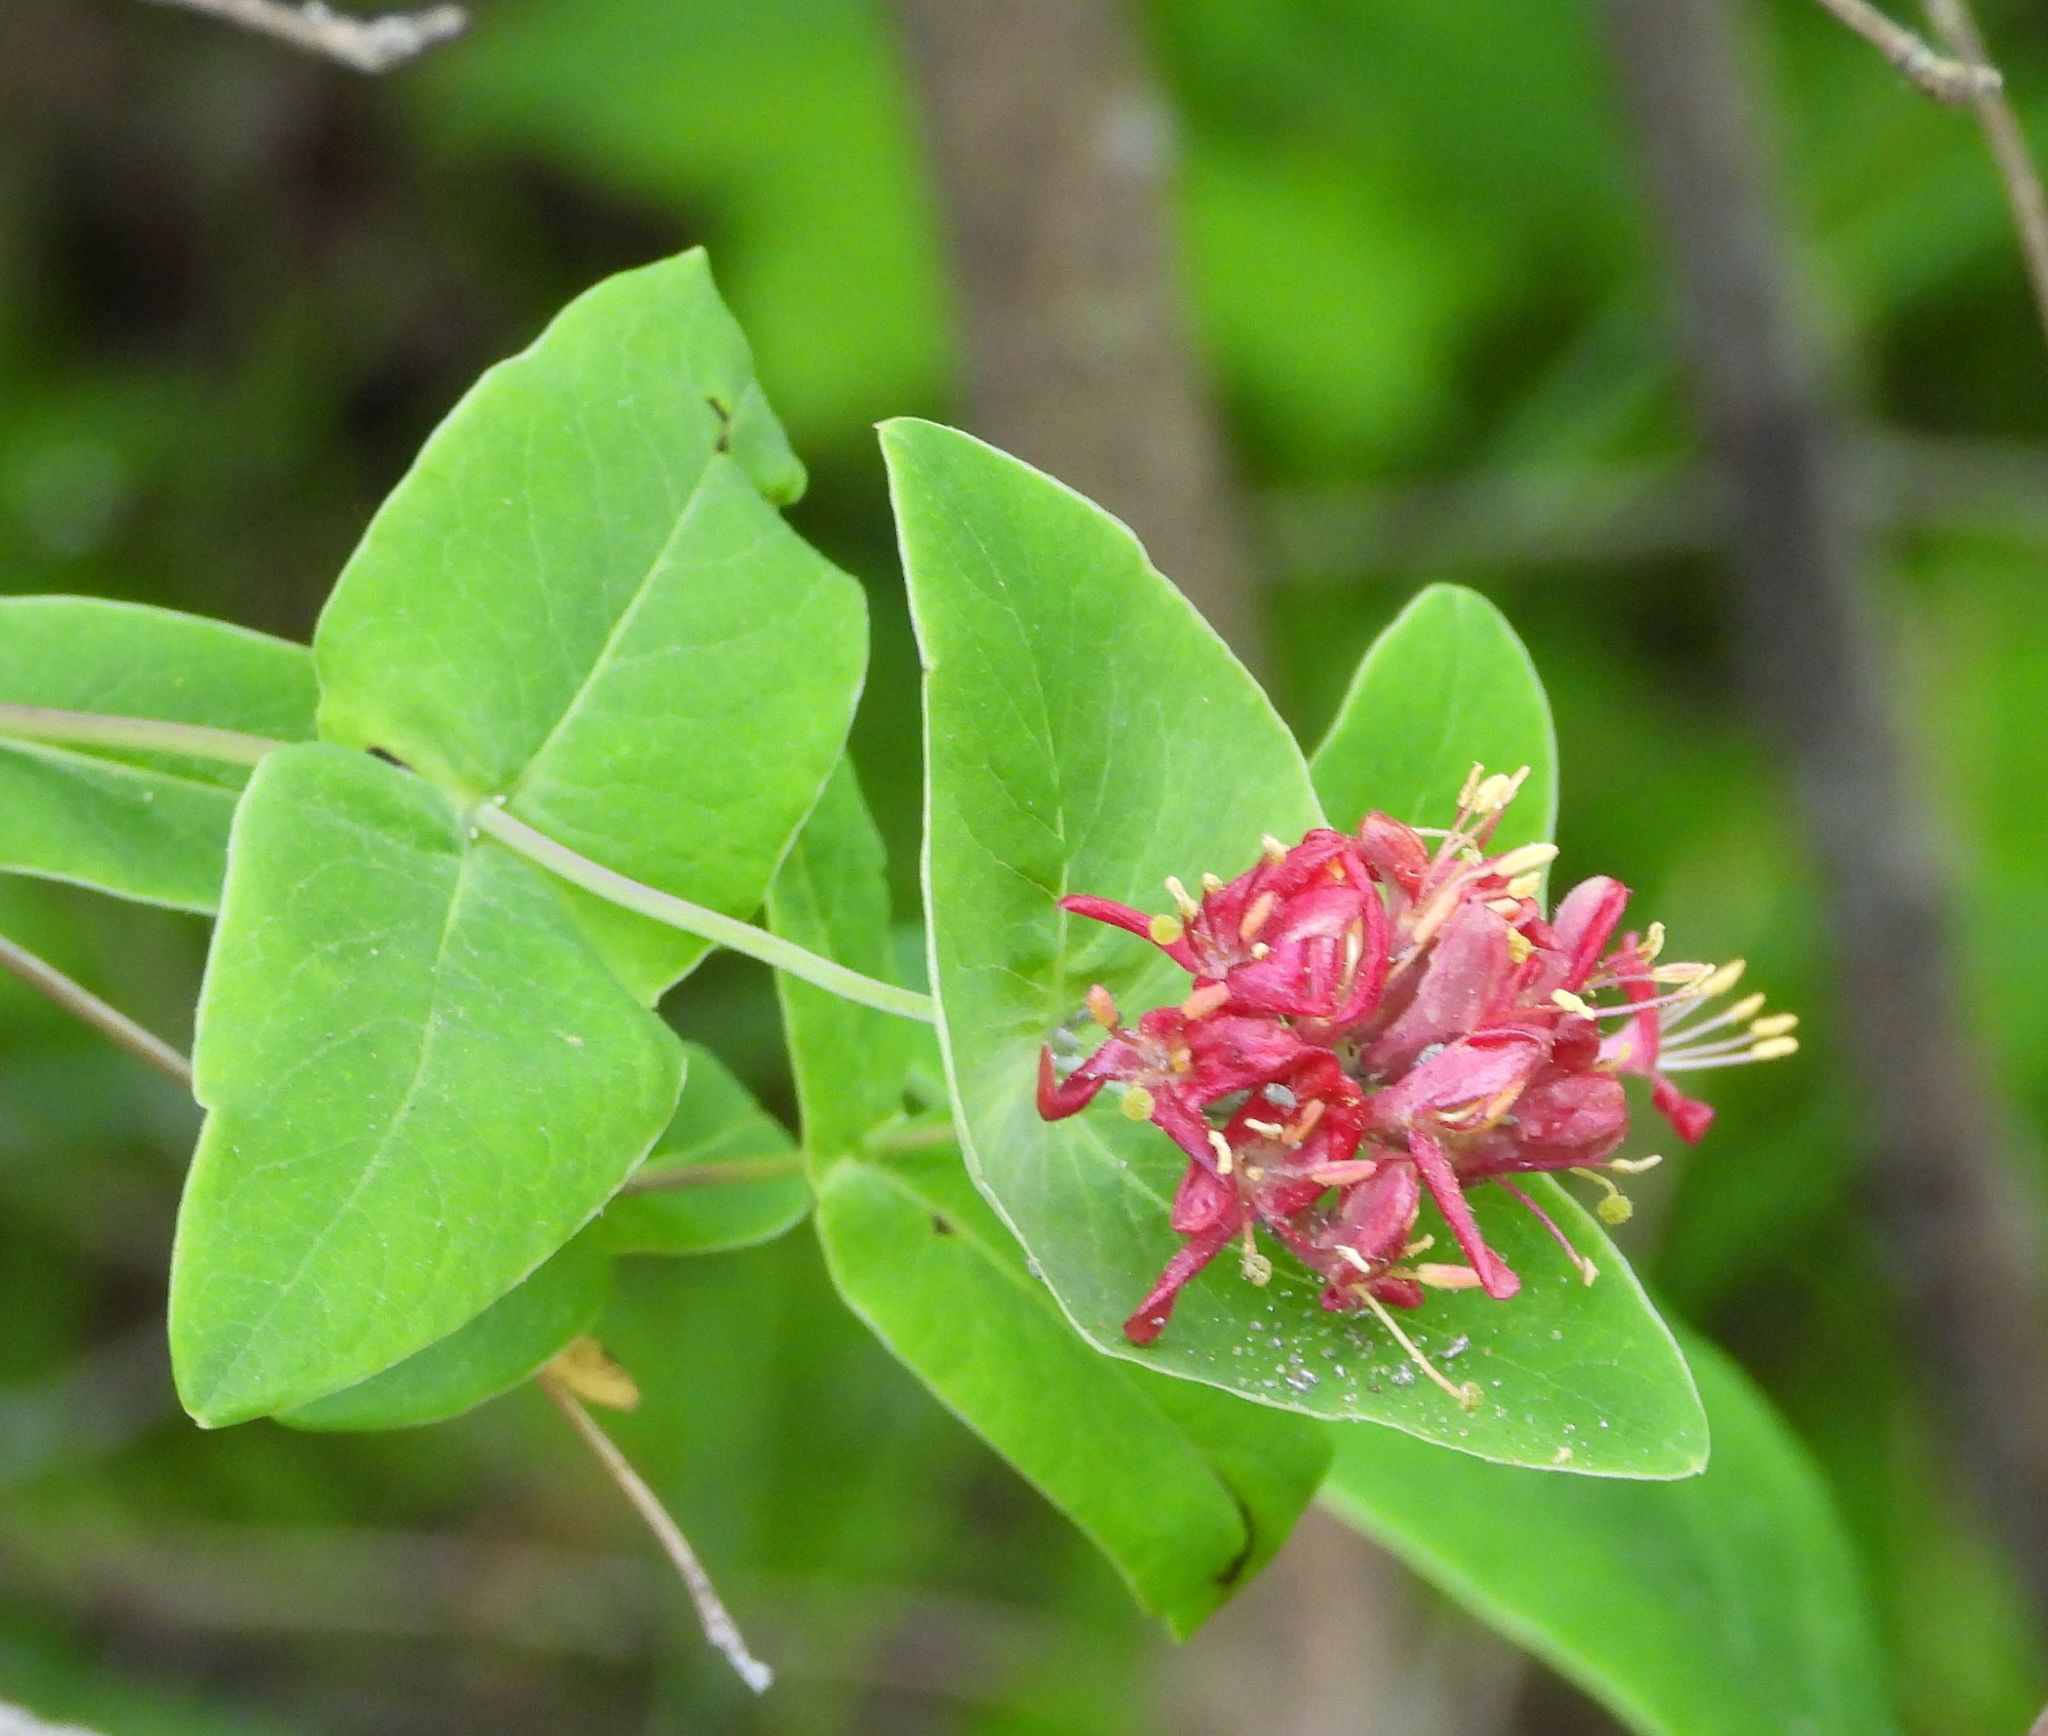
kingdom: Plantae
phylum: Tracheophyta
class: Magnoliopsida
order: Dipsacales
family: Caprifoliaceae
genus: Lonicera
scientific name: Lonicera dioica
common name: Limber honeysuckle
